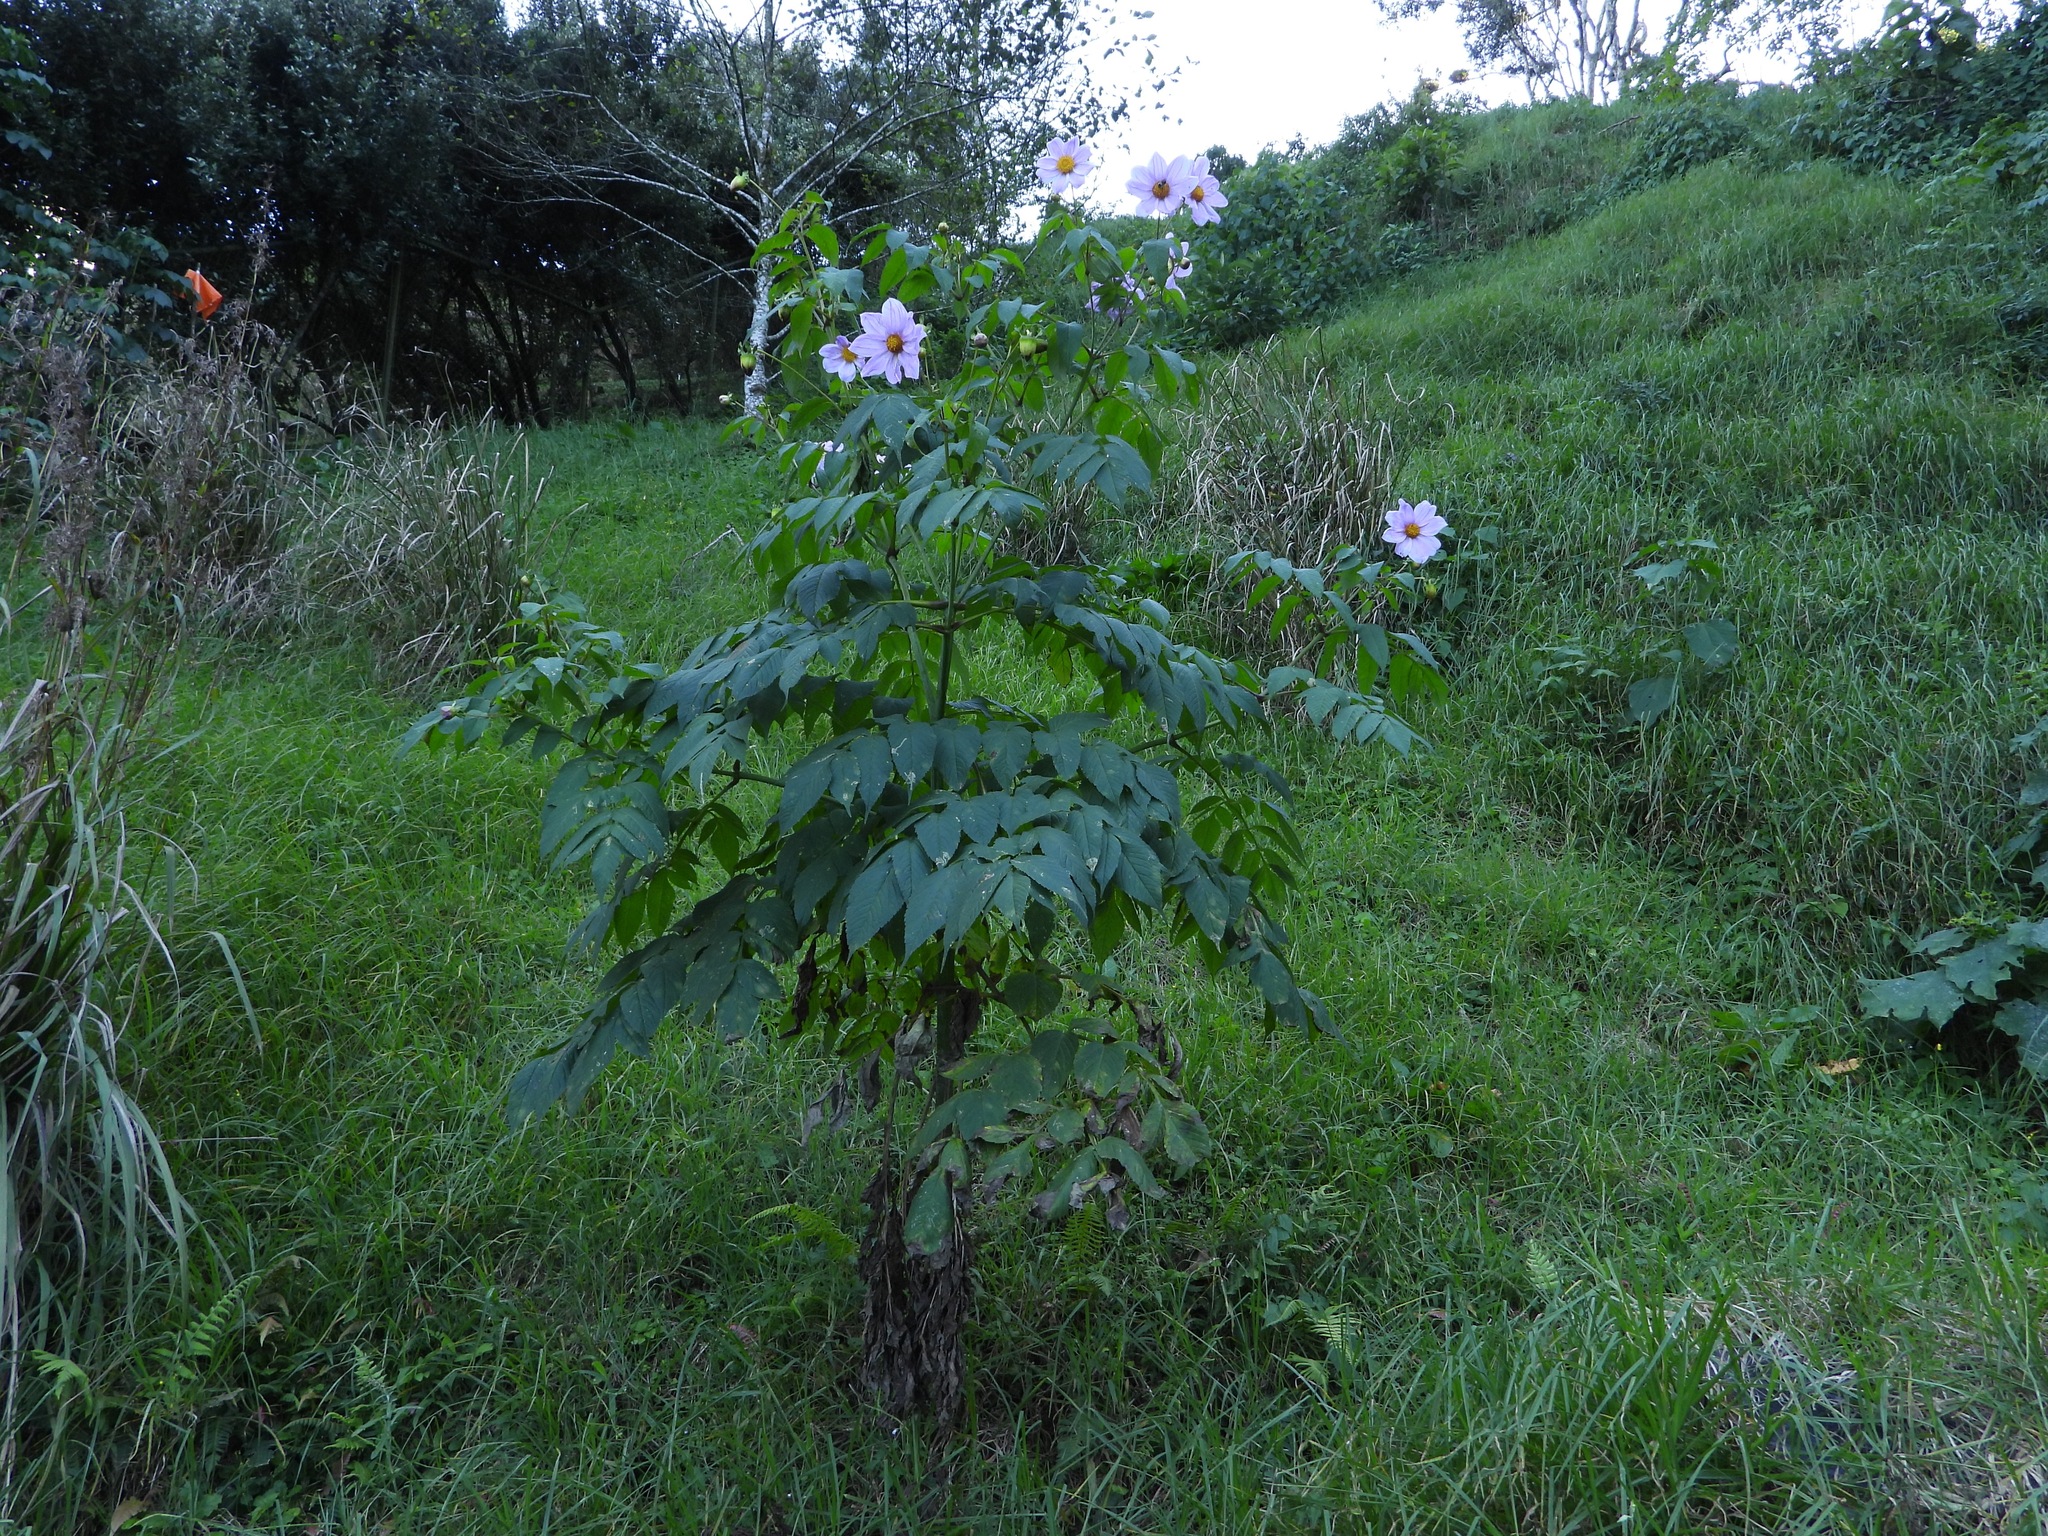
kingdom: Plantae
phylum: Tracheophyta
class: Magnoliopsida
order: Asterales
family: Asteraceae
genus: Dahlia
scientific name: Dahlia imperialis
